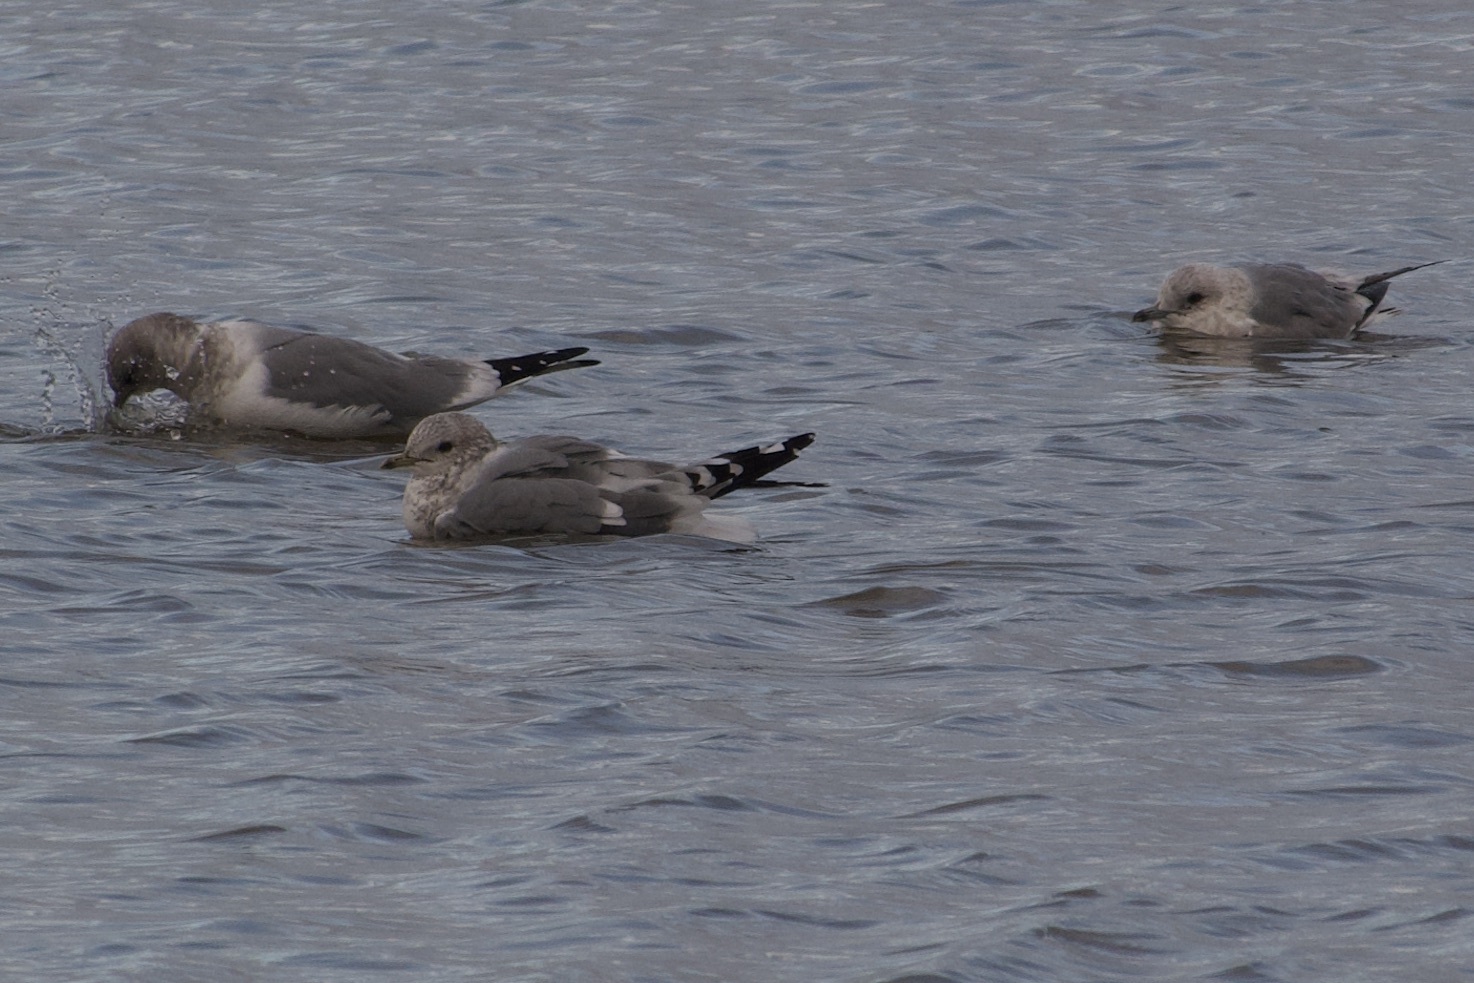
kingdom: Animalia
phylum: Chordata
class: Aves
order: Charadriiformes
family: Laridae
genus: Larus
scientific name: Larus brachyrhynchus
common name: Short-billed gull
